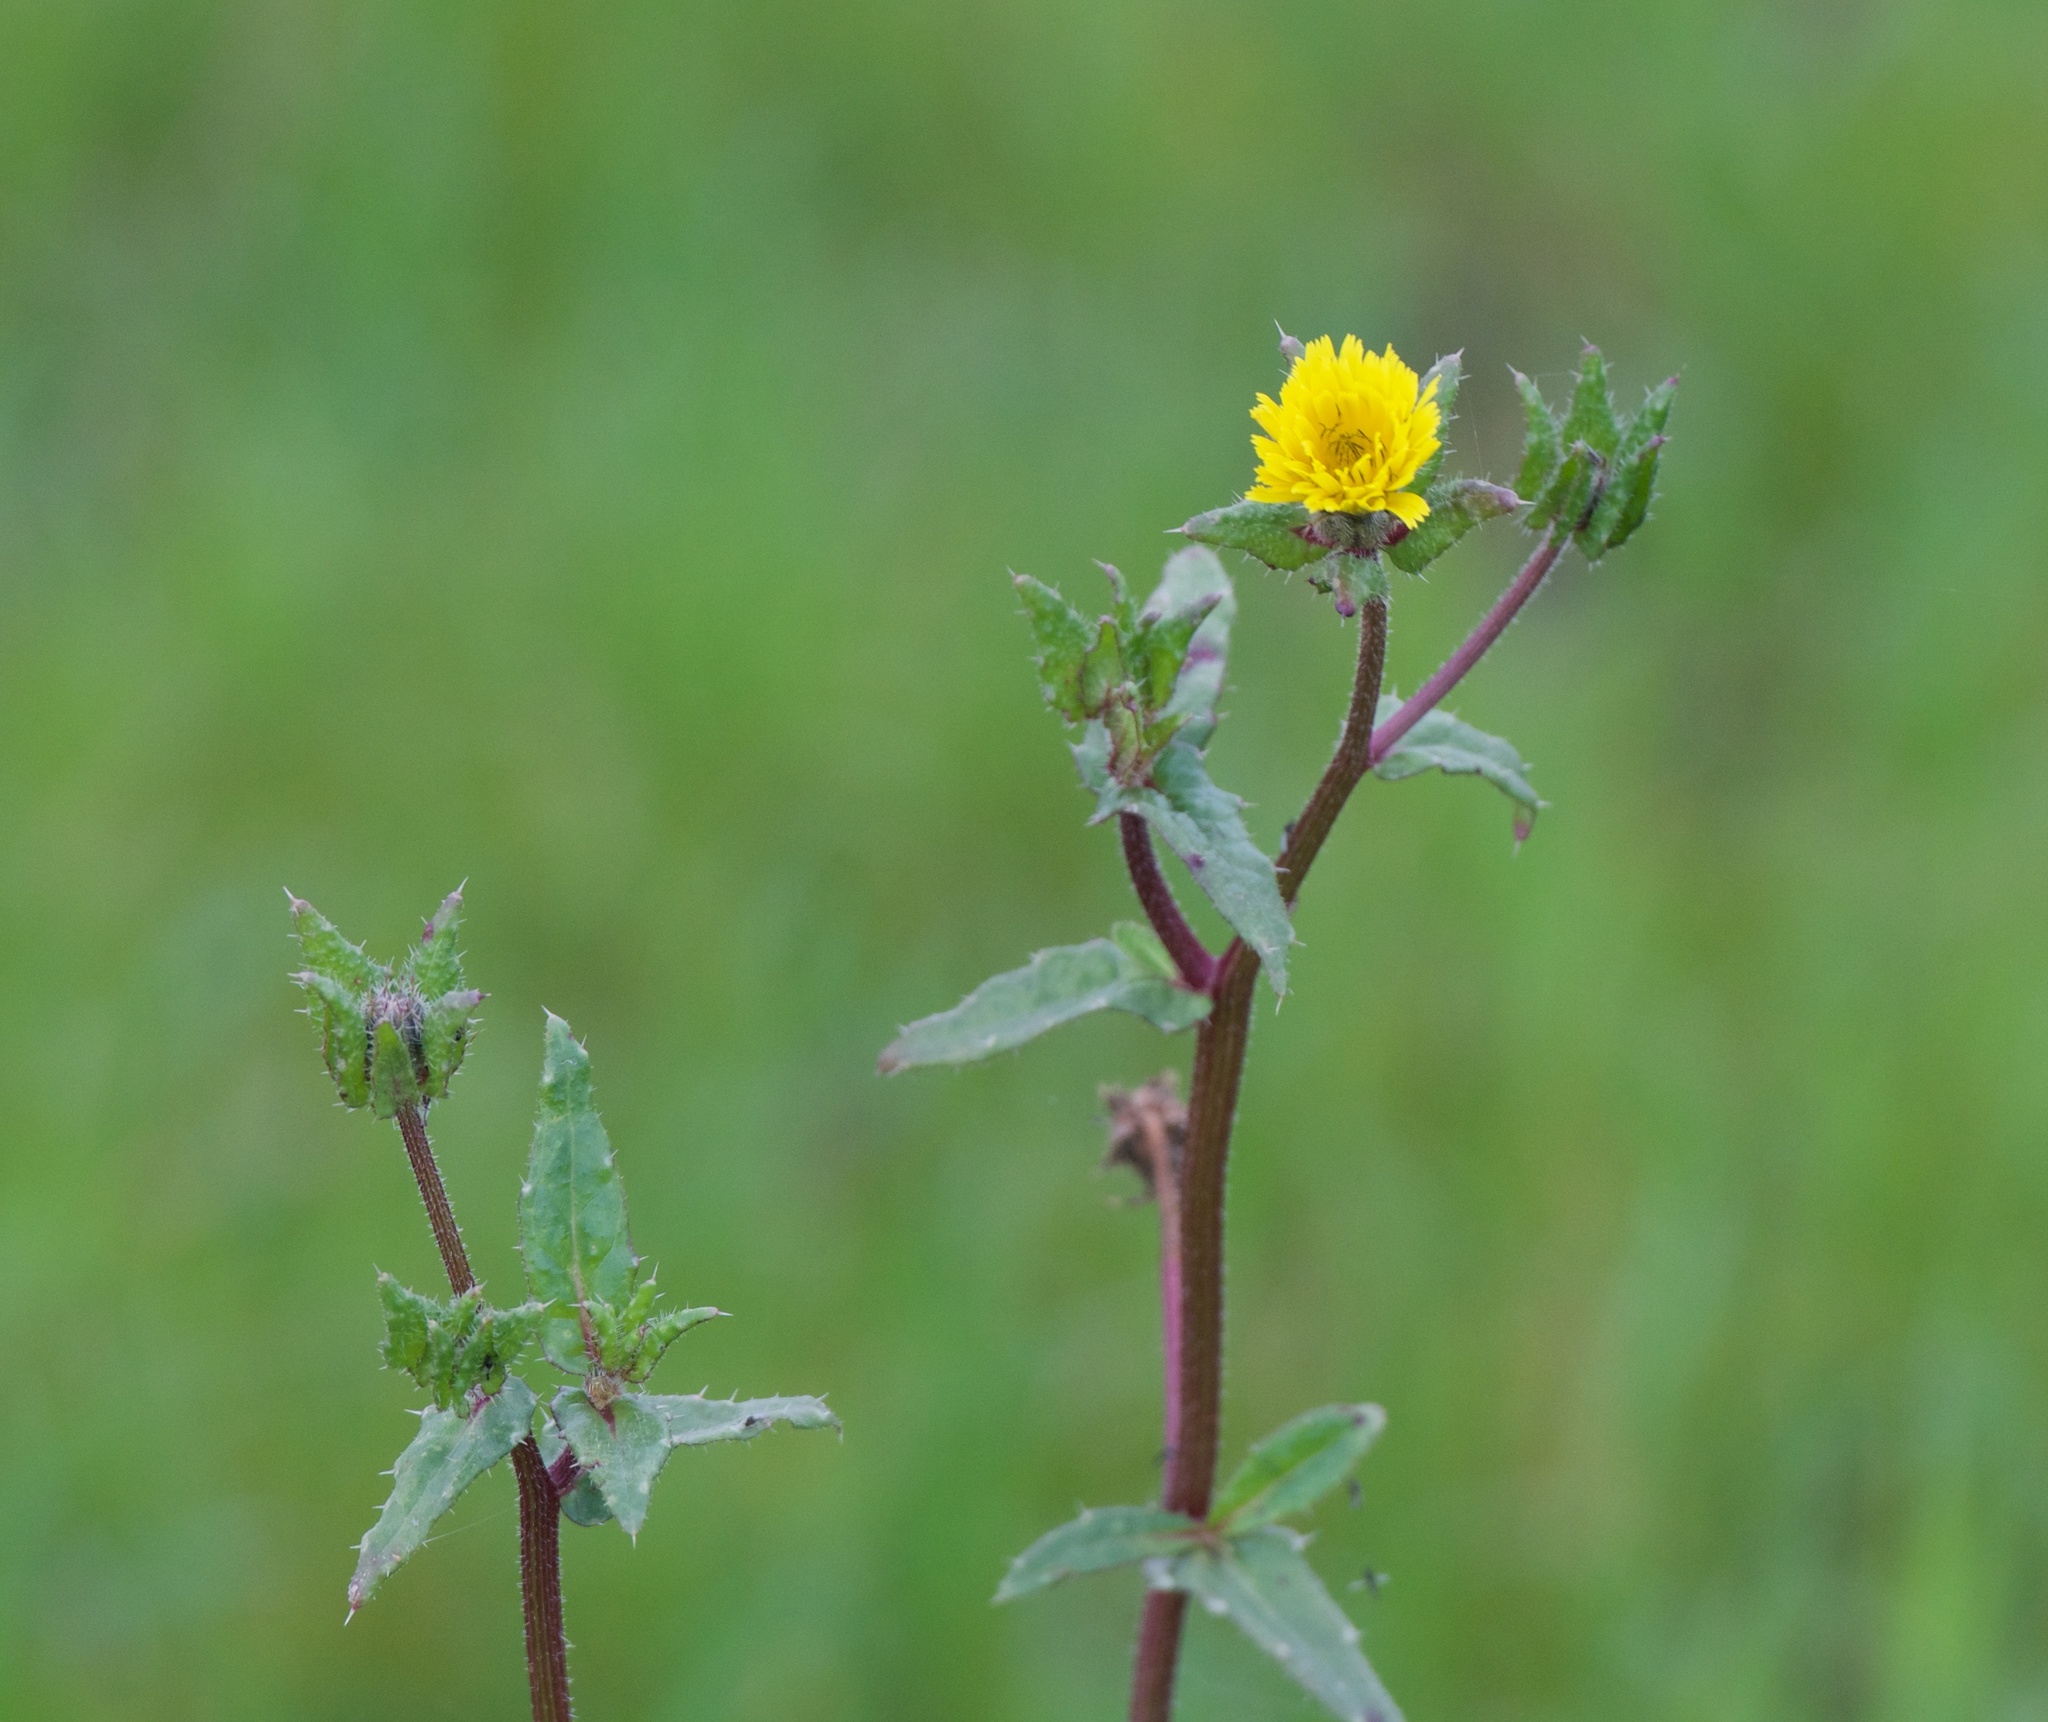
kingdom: Plantae
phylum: Tracheophyta
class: Magnoliopsida
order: Asterales
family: Asteraceae
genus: Helminthotheca
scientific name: Helminthotheca echioides
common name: Ox-tongue
